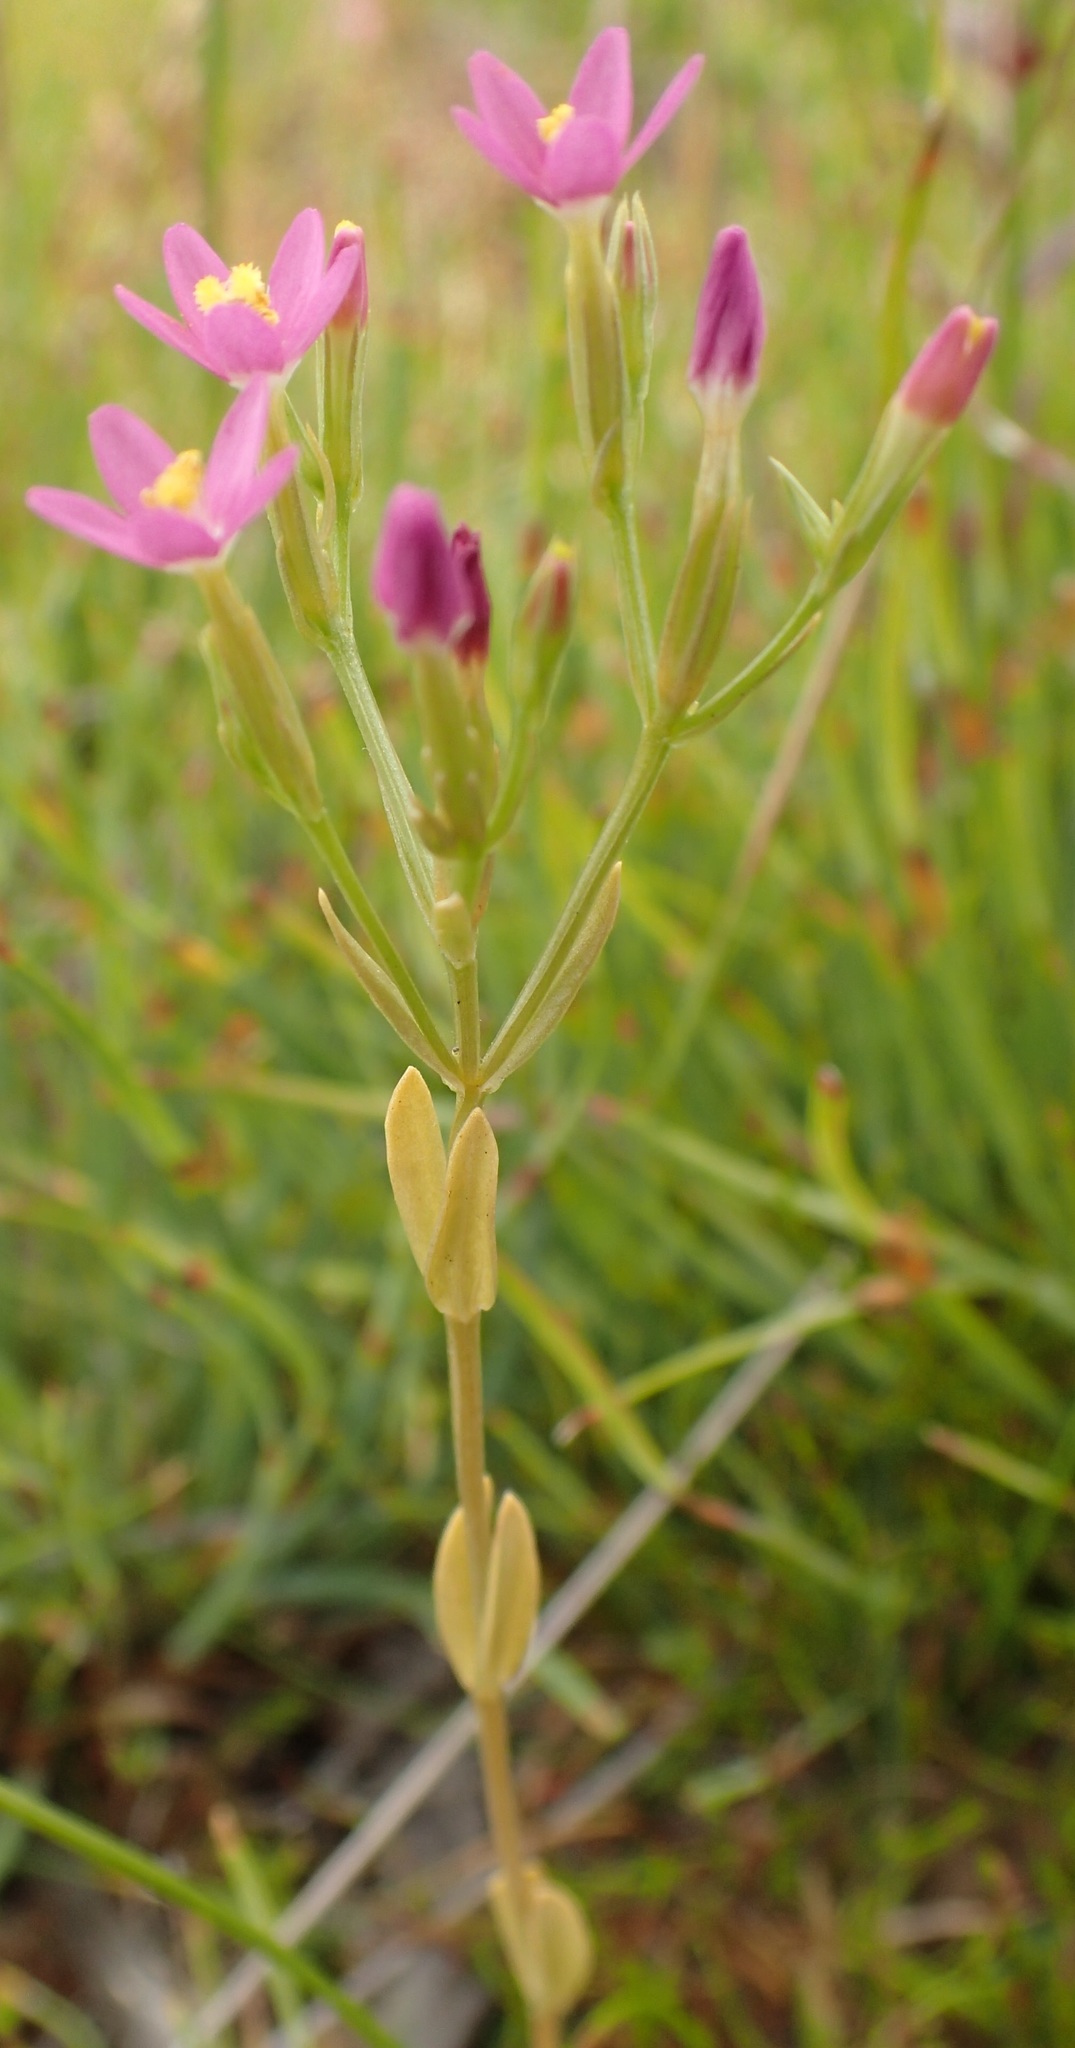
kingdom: Plantae
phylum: Tracheophyta
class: Magnoliopsida
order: Gentianales
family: Gentianaceae
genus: Centaurium
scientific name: Centaurium erythraea
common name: Common centaury
